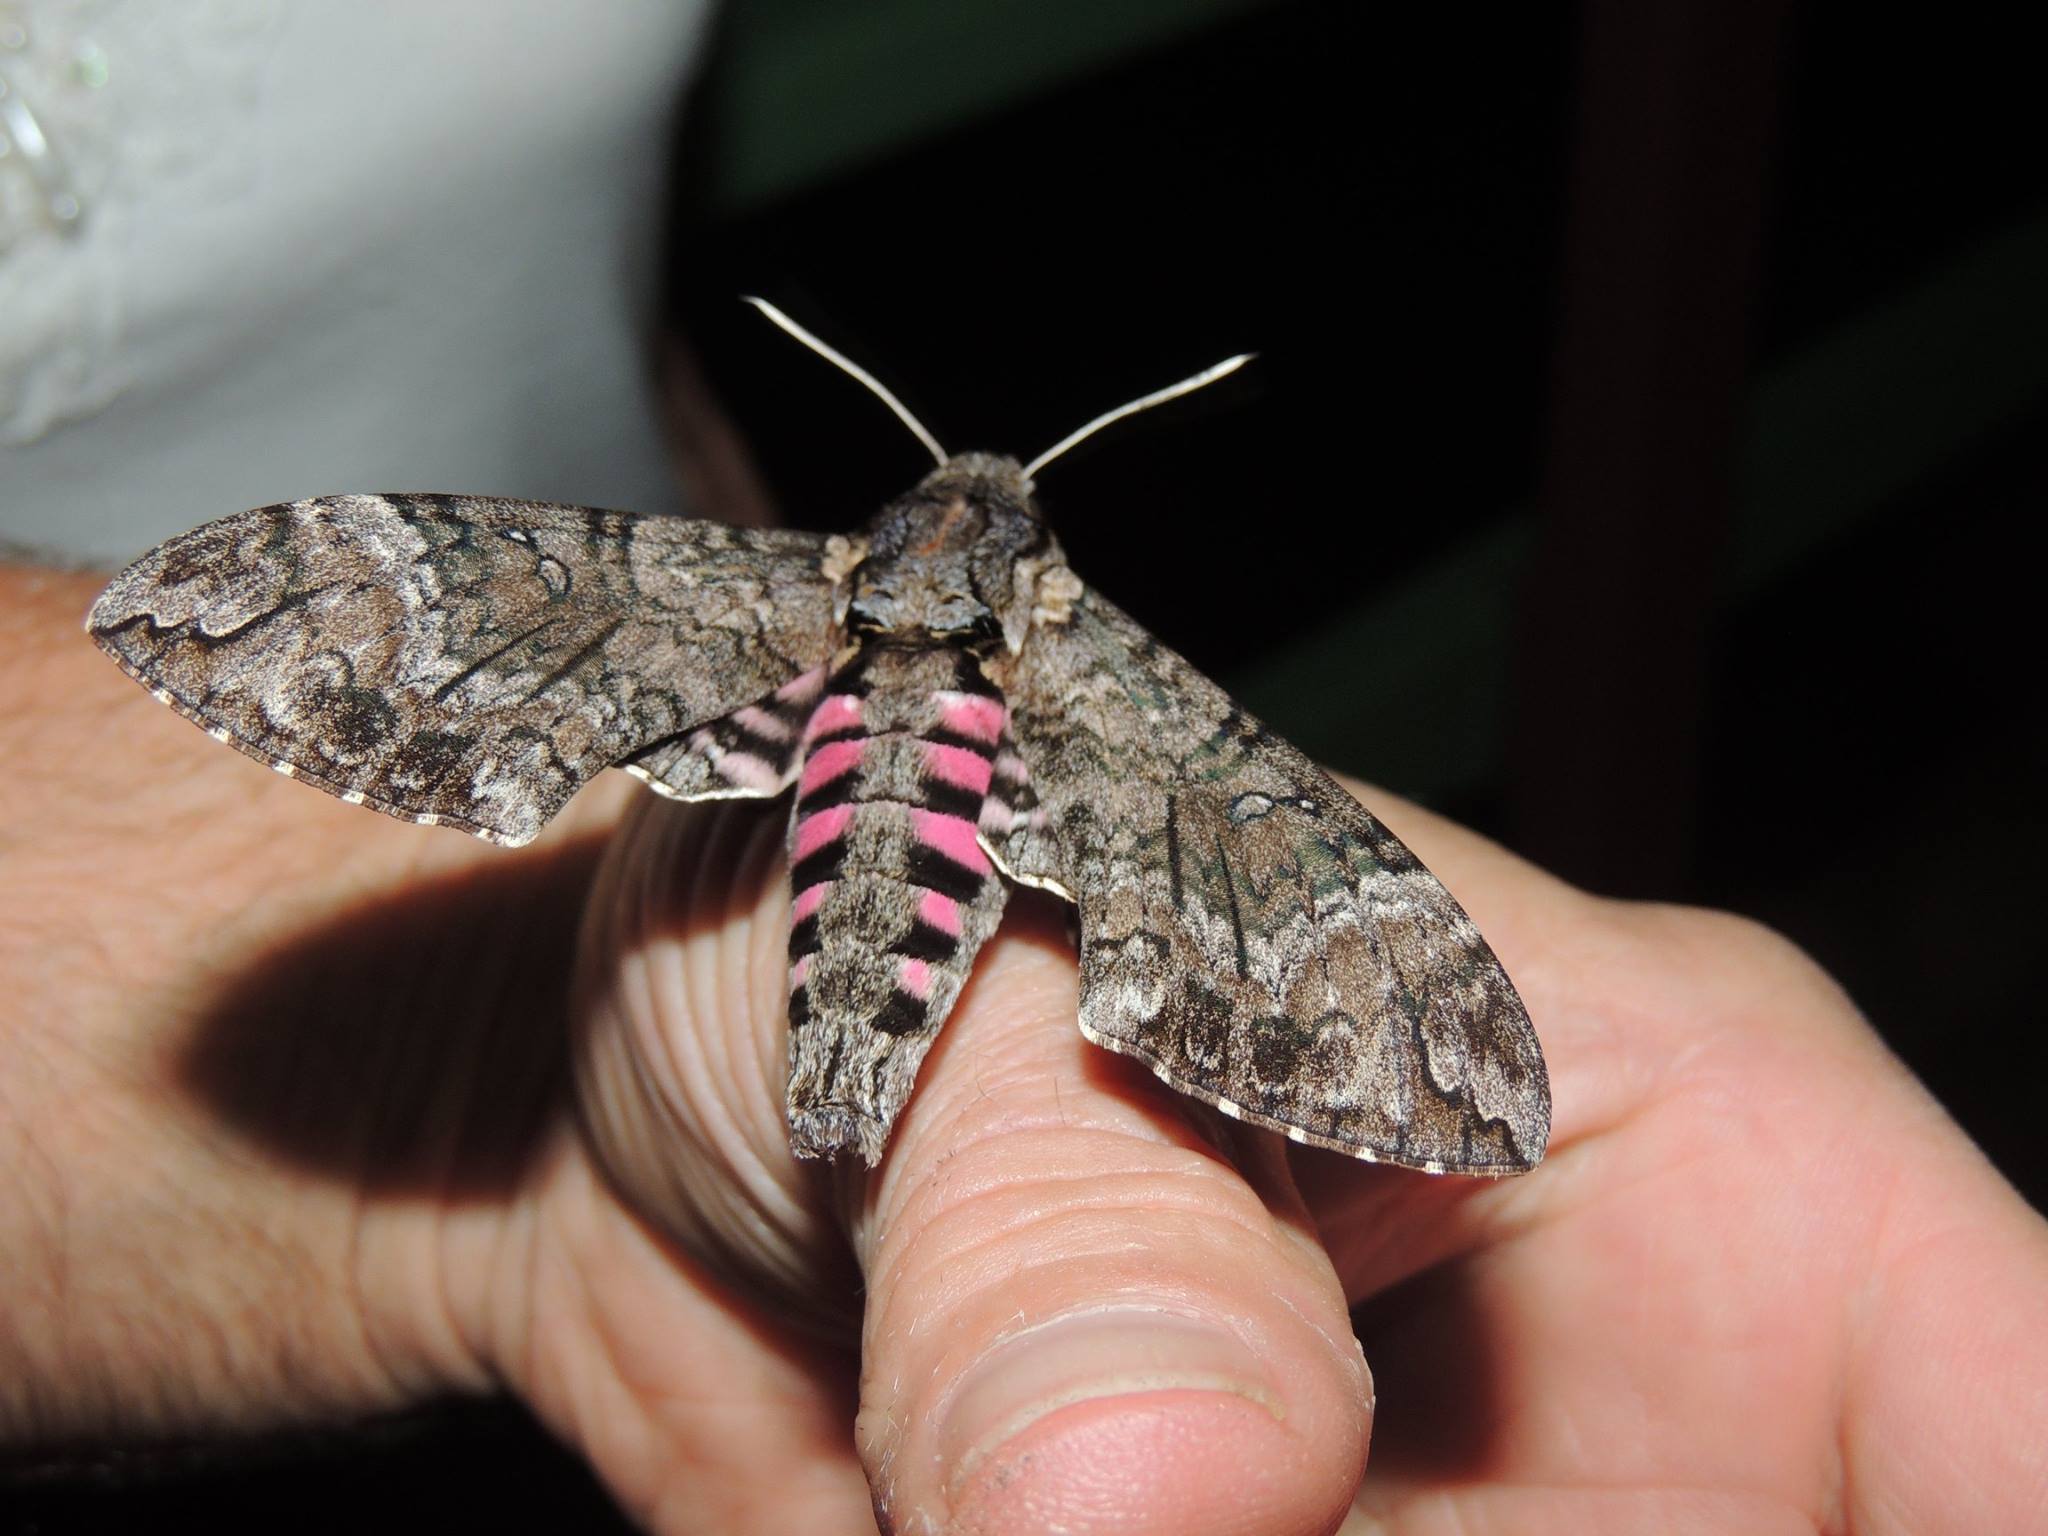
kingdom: Animalia
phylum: Arthropoda
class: Insecta
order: Lepidoptera
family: Sphingidae
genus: Agrius
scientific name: Agrius cingulata
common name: Pink-spotted hawkmoth
